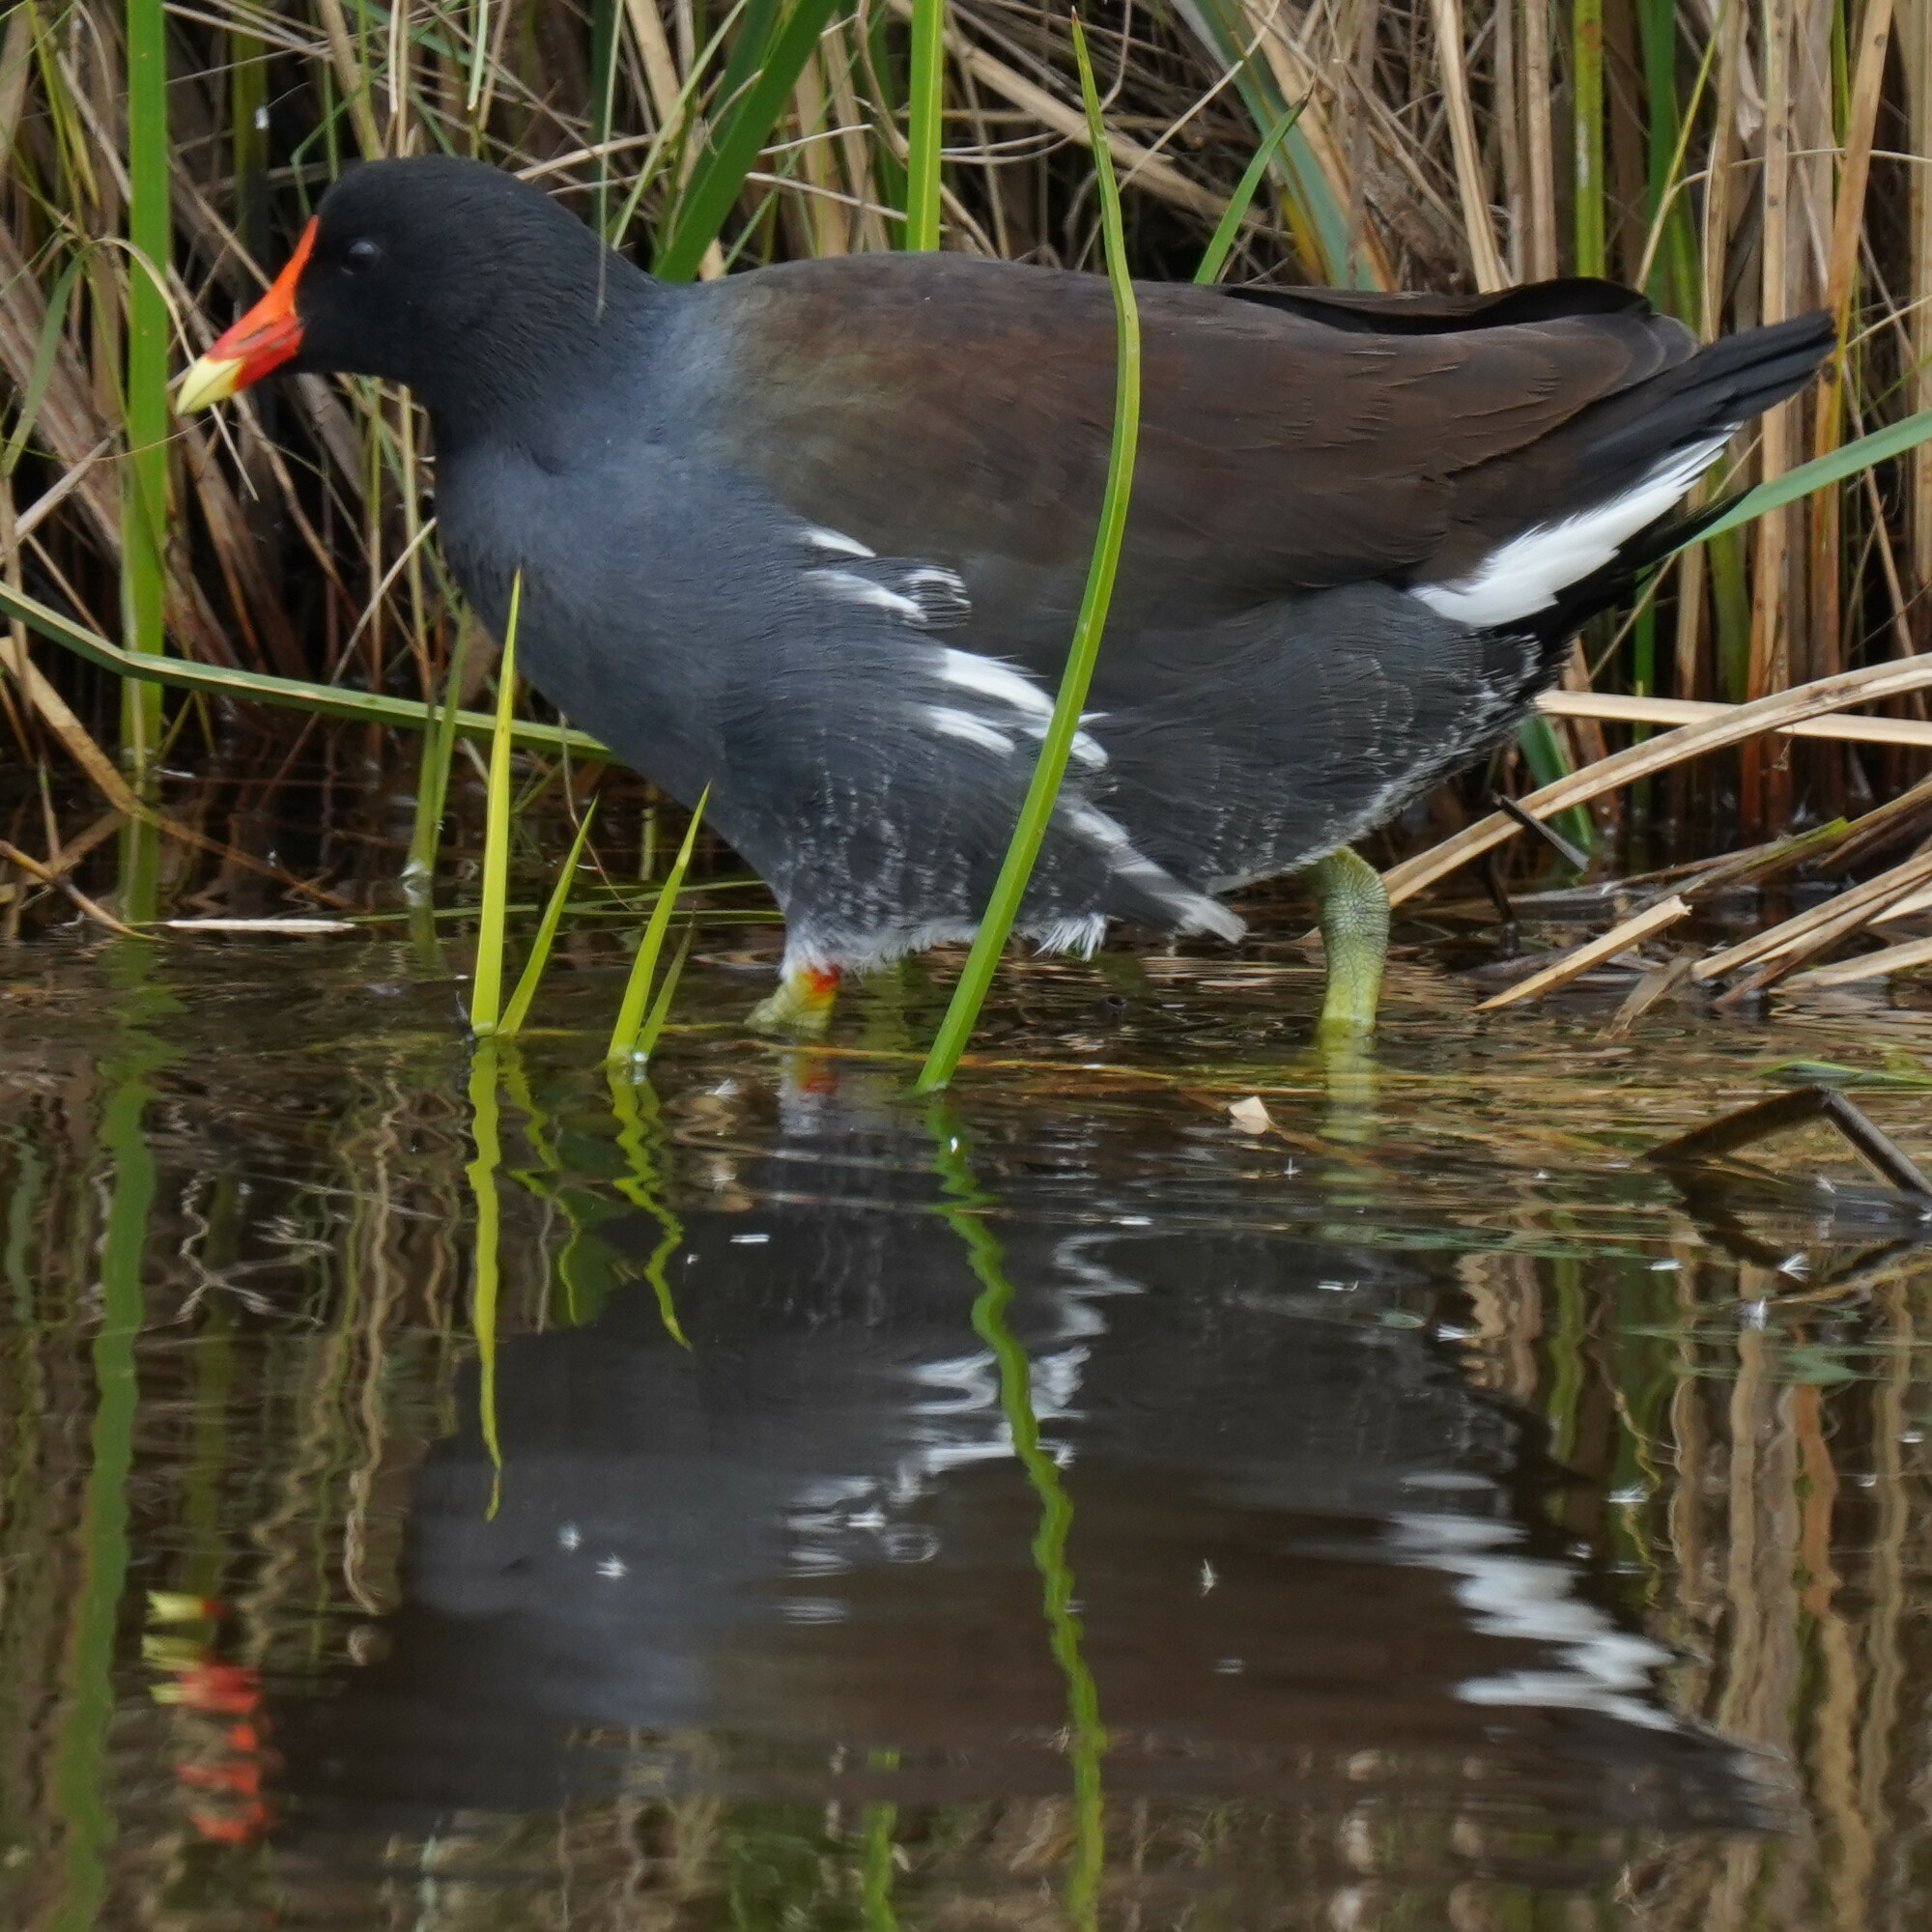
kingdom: Animalia
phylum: Chordata
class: Aves
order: Gruiformes
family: Rallidae
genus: Gallinula
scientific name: Gallinula chloropus
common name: Common moorhen
